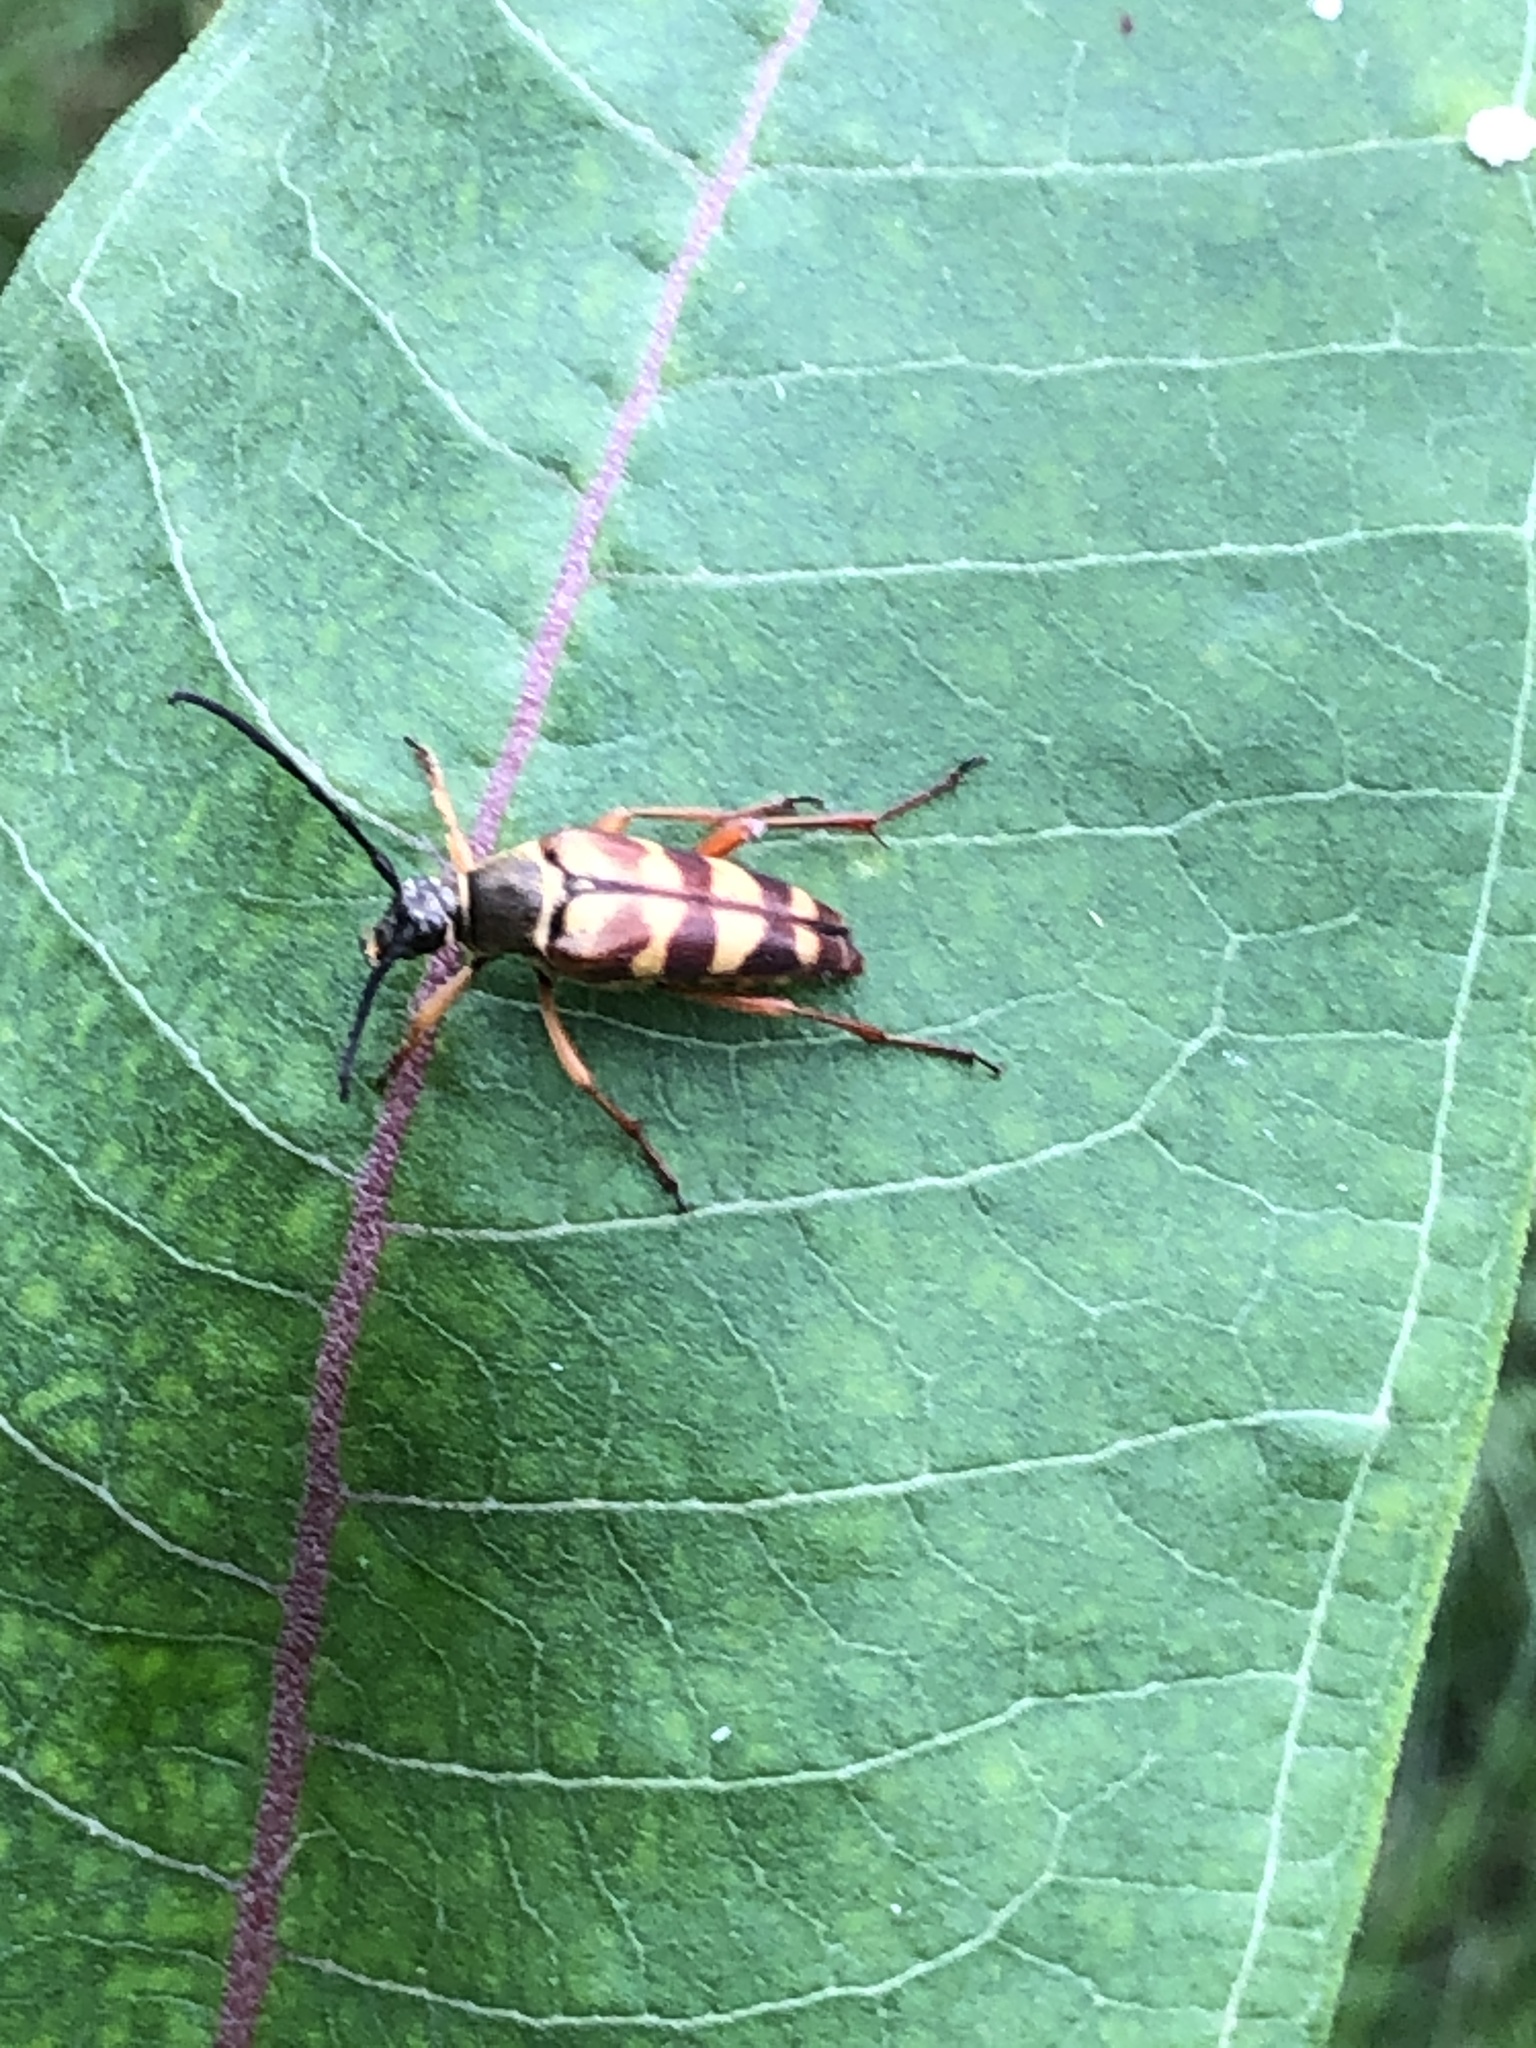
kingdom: Animalia
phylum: Arthropoda
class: Insecta
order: Coleoptera
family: Cerambycidae
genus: Typocerus
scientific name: Typocerus velutinus
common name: Banded longhorn beetle
